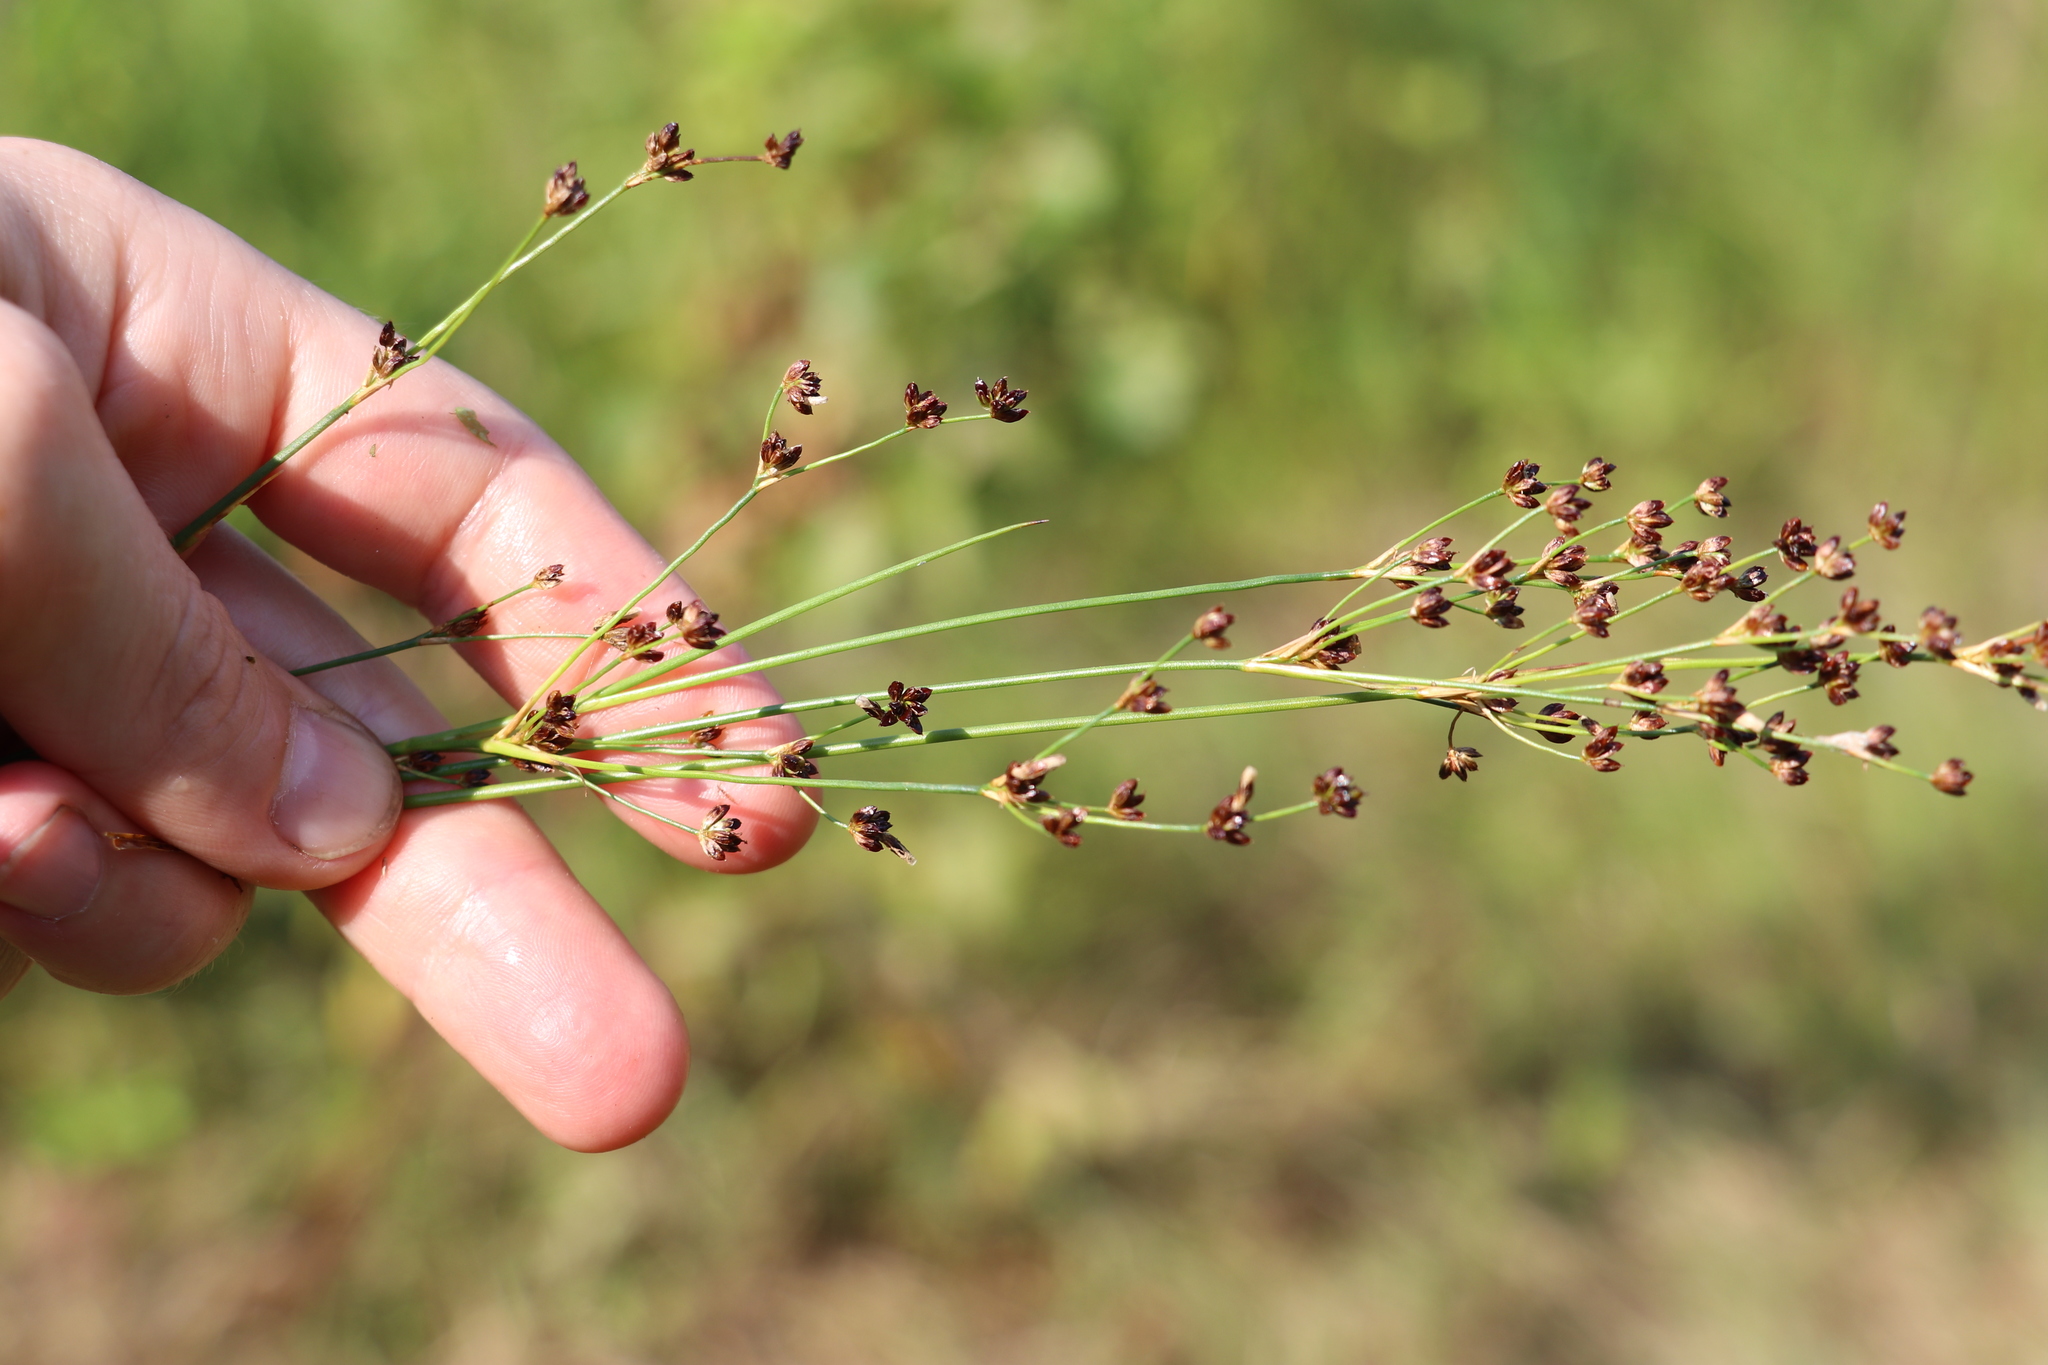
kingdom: Plantae
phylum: Tracheophyta
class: Liliopsida
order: Poales
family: Juncaceae
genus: Juncus
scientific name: Juncus alpinoarticulatus
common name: Alpine rush
